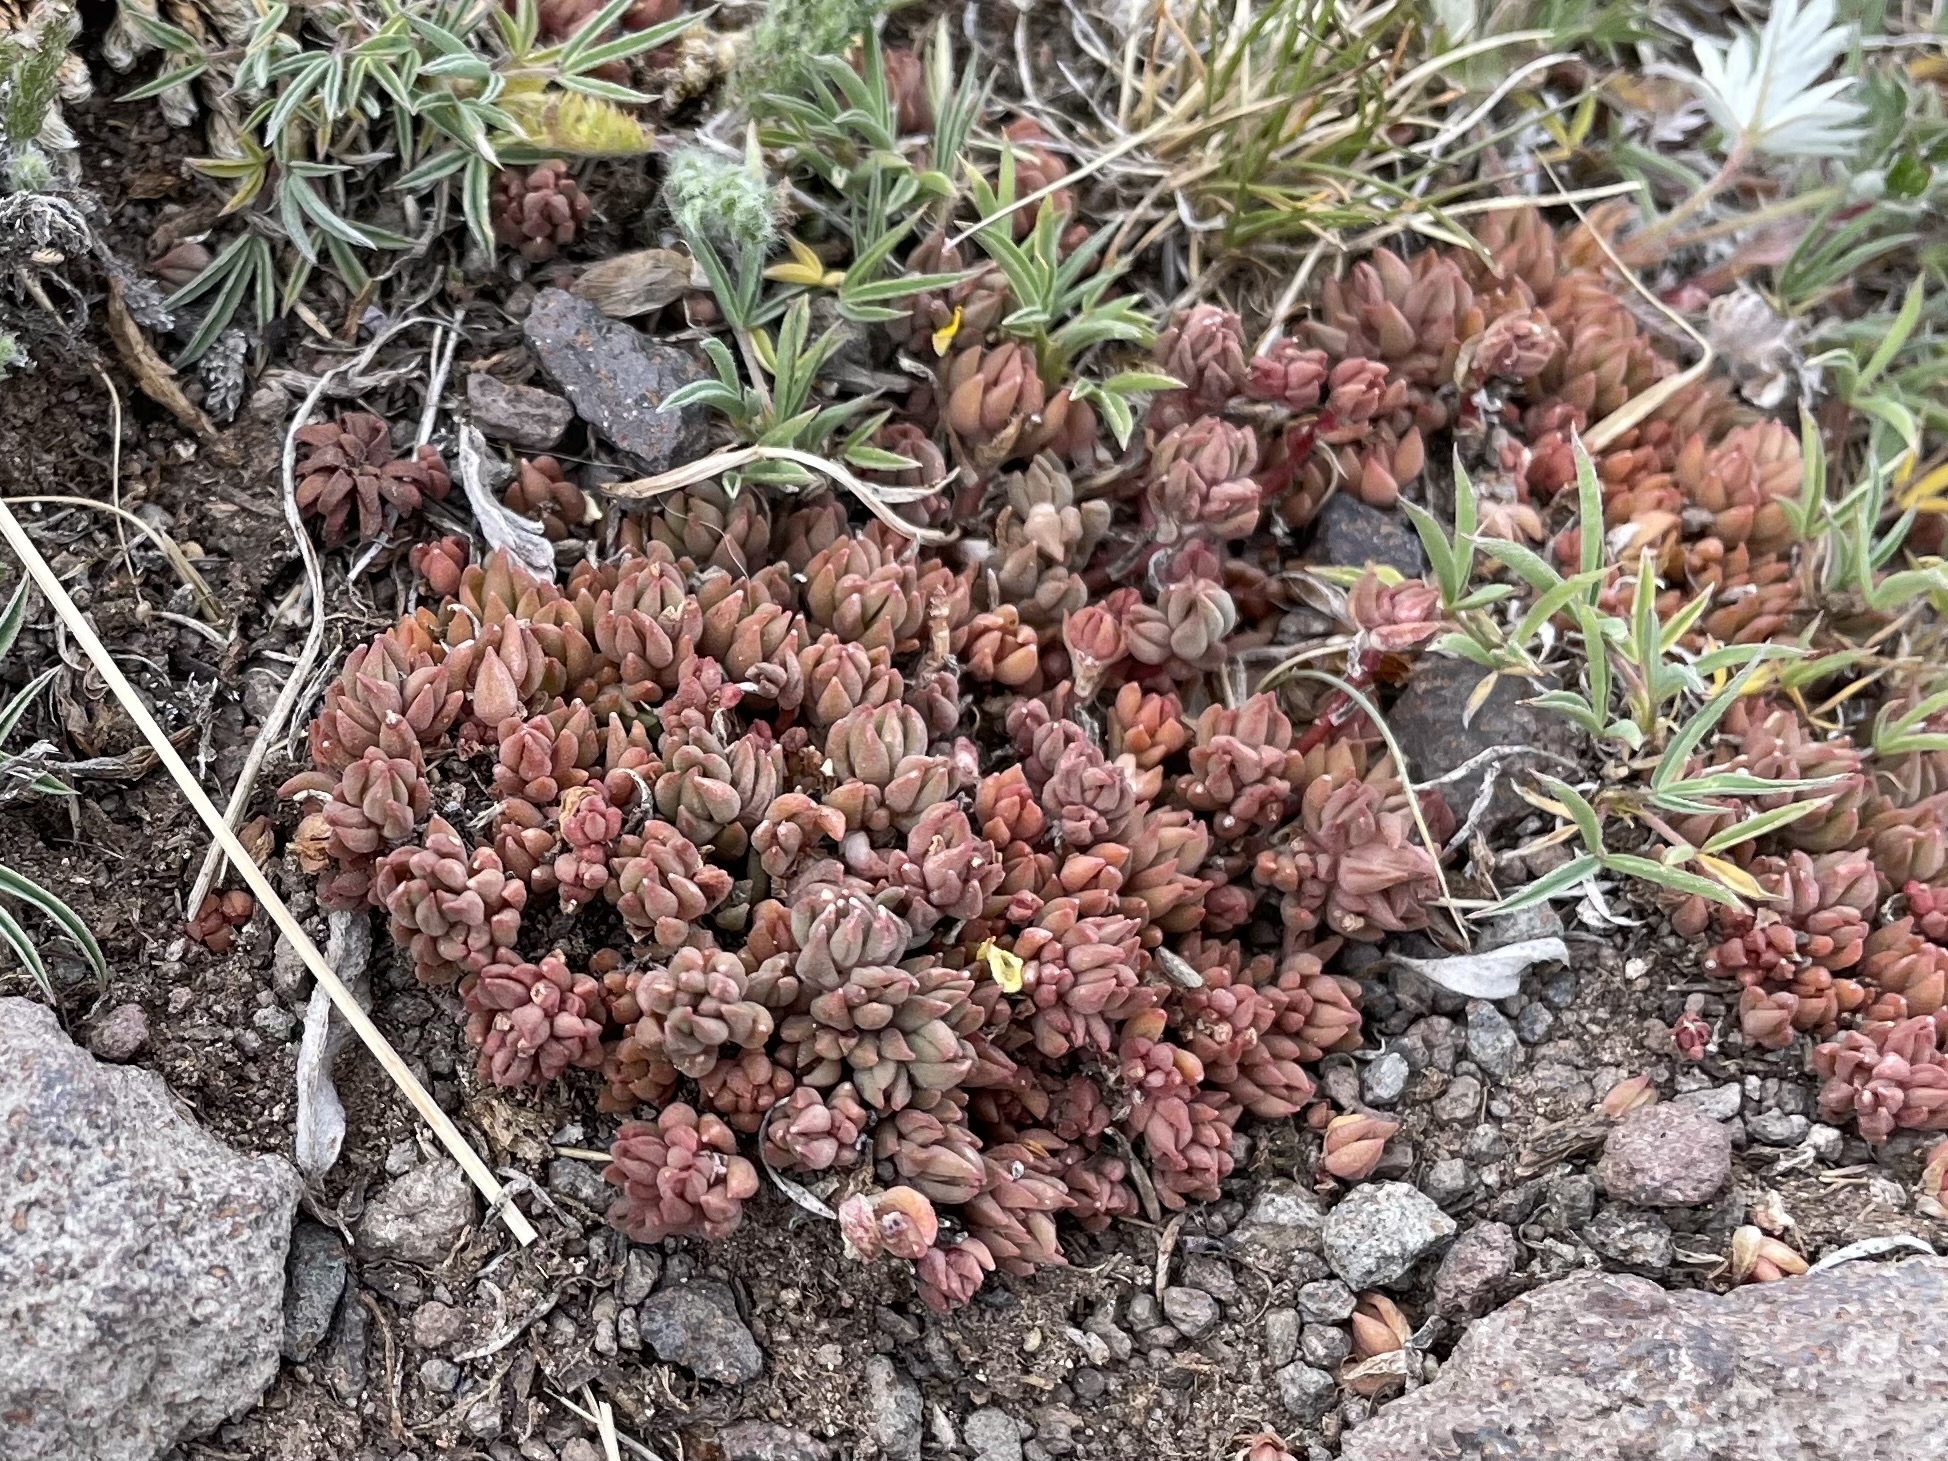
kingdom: Plantae
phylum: Tracheophyta
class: Magnoliopsida
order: Saxifragales
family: Crassulaceae
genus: Sedum
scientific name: Sedum lanceolatum
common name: Common stonecrop
